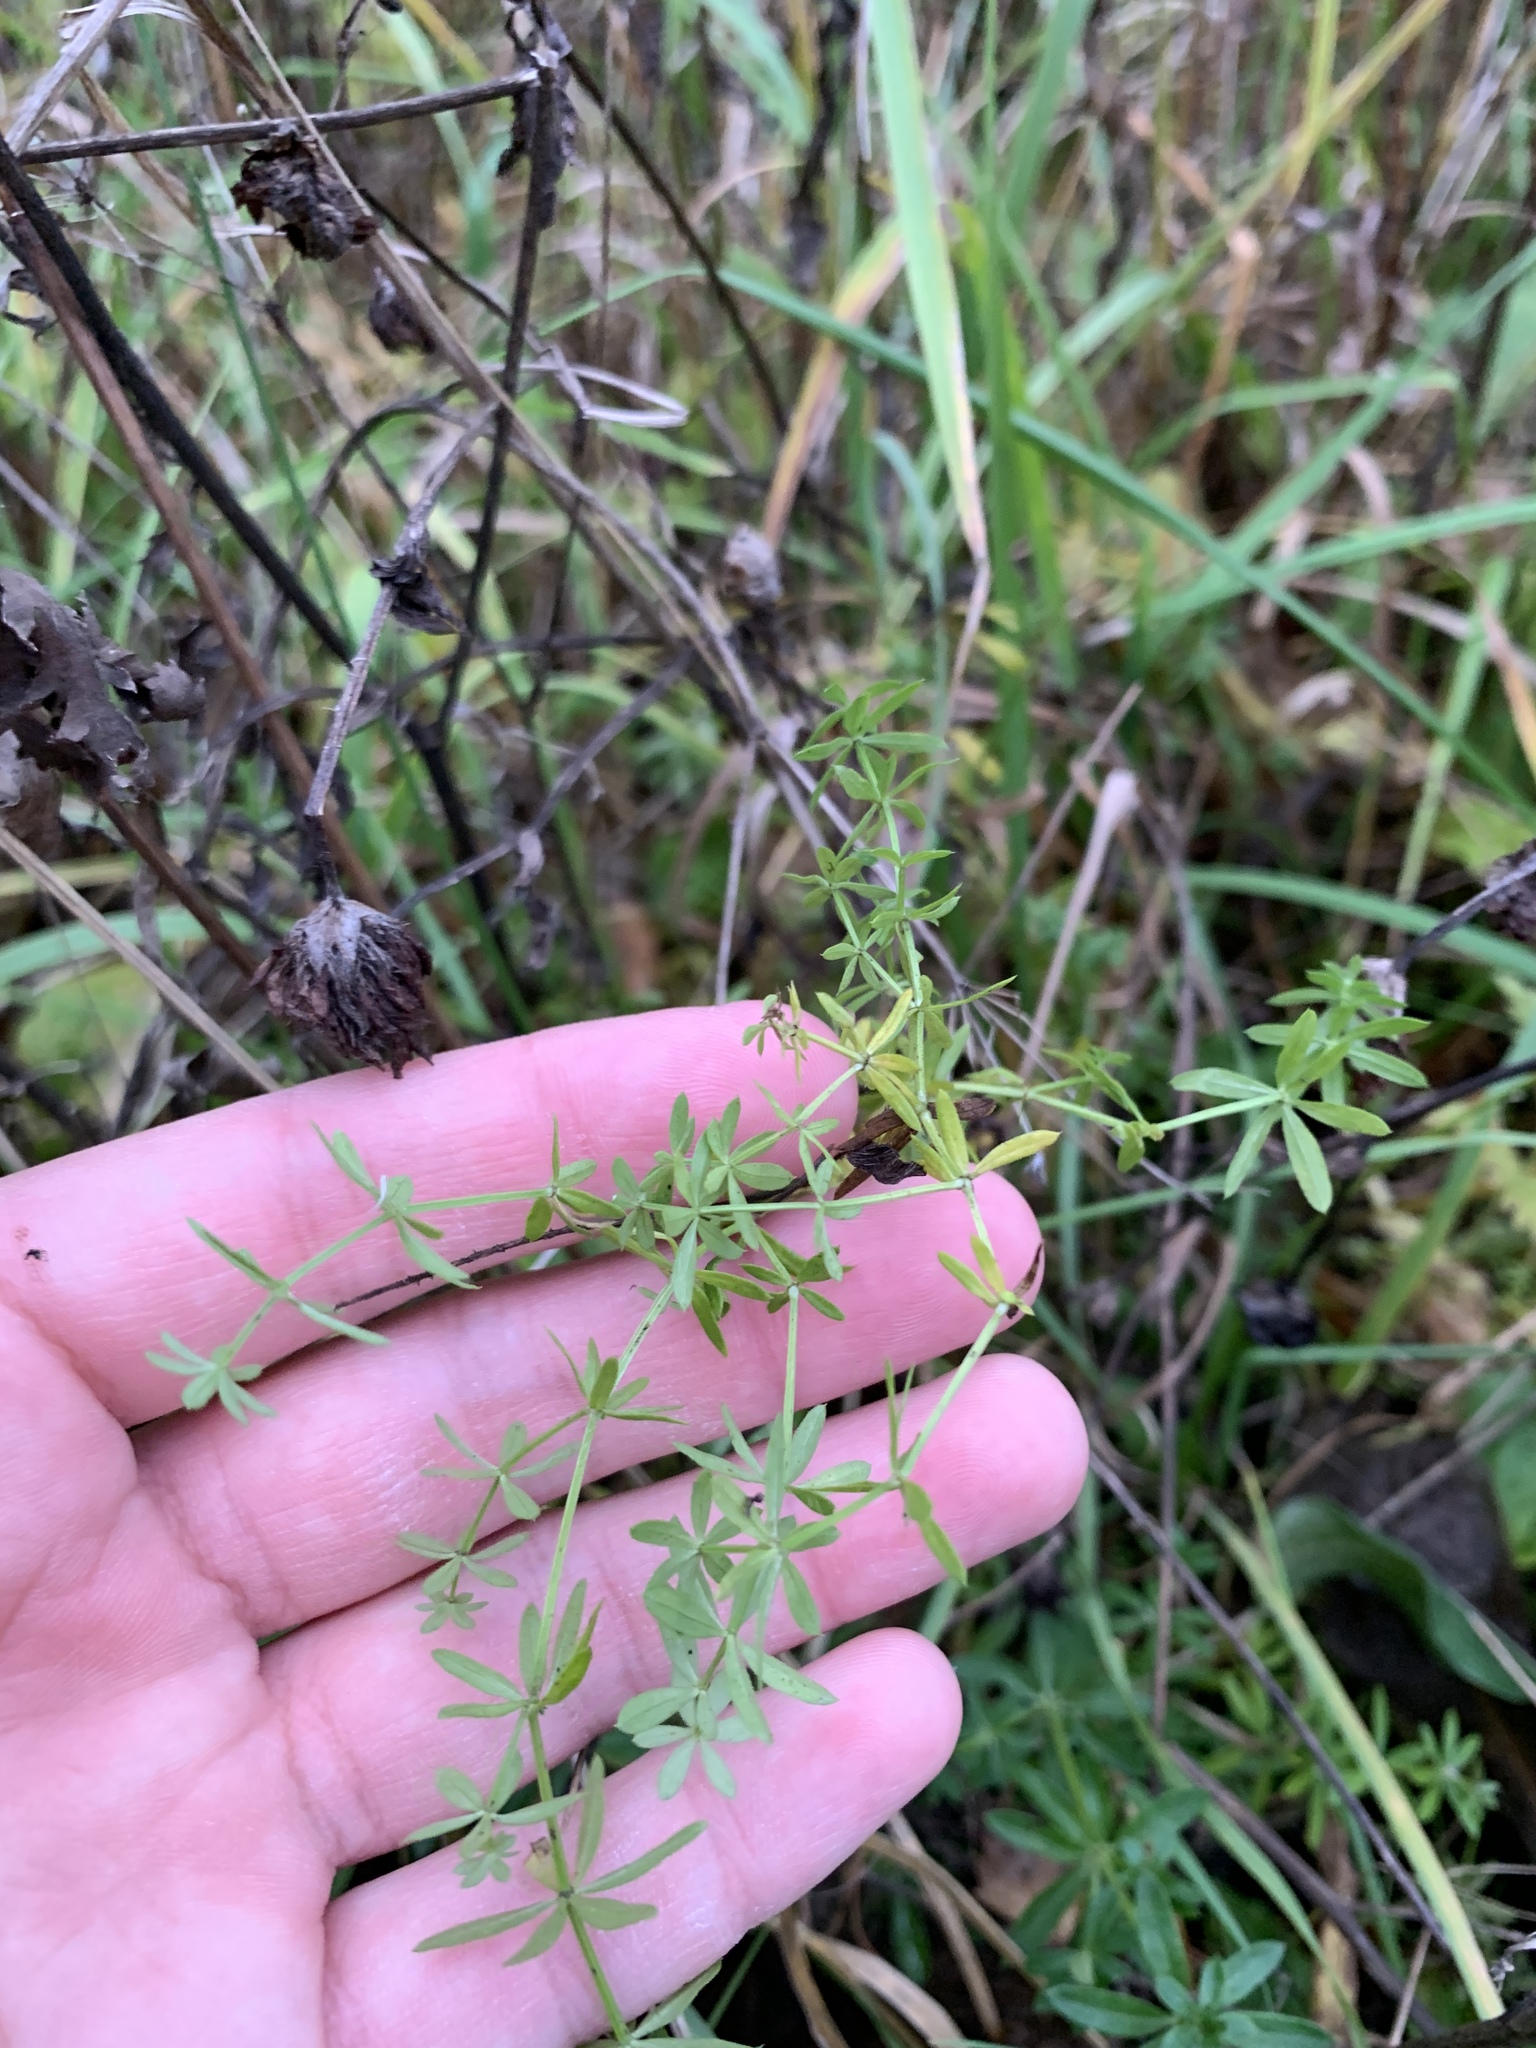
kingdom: Plantae
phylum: Tracheophyta
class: Magnoliopsida
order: Gentianales
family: Rubiaceae
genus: Galium
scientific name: Galium mollugo
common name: Hedge bedstraw
